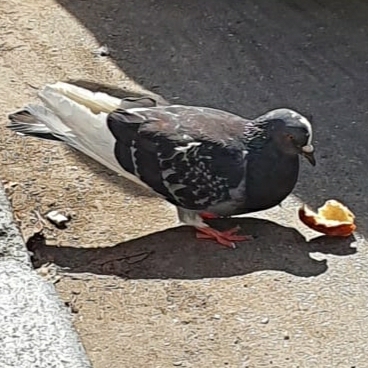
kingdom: Animalia
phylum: Chordata
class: Aves
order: Columbiformes
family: Columbidae
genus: Columba
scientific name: Columba livia
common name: Rock pigeon
